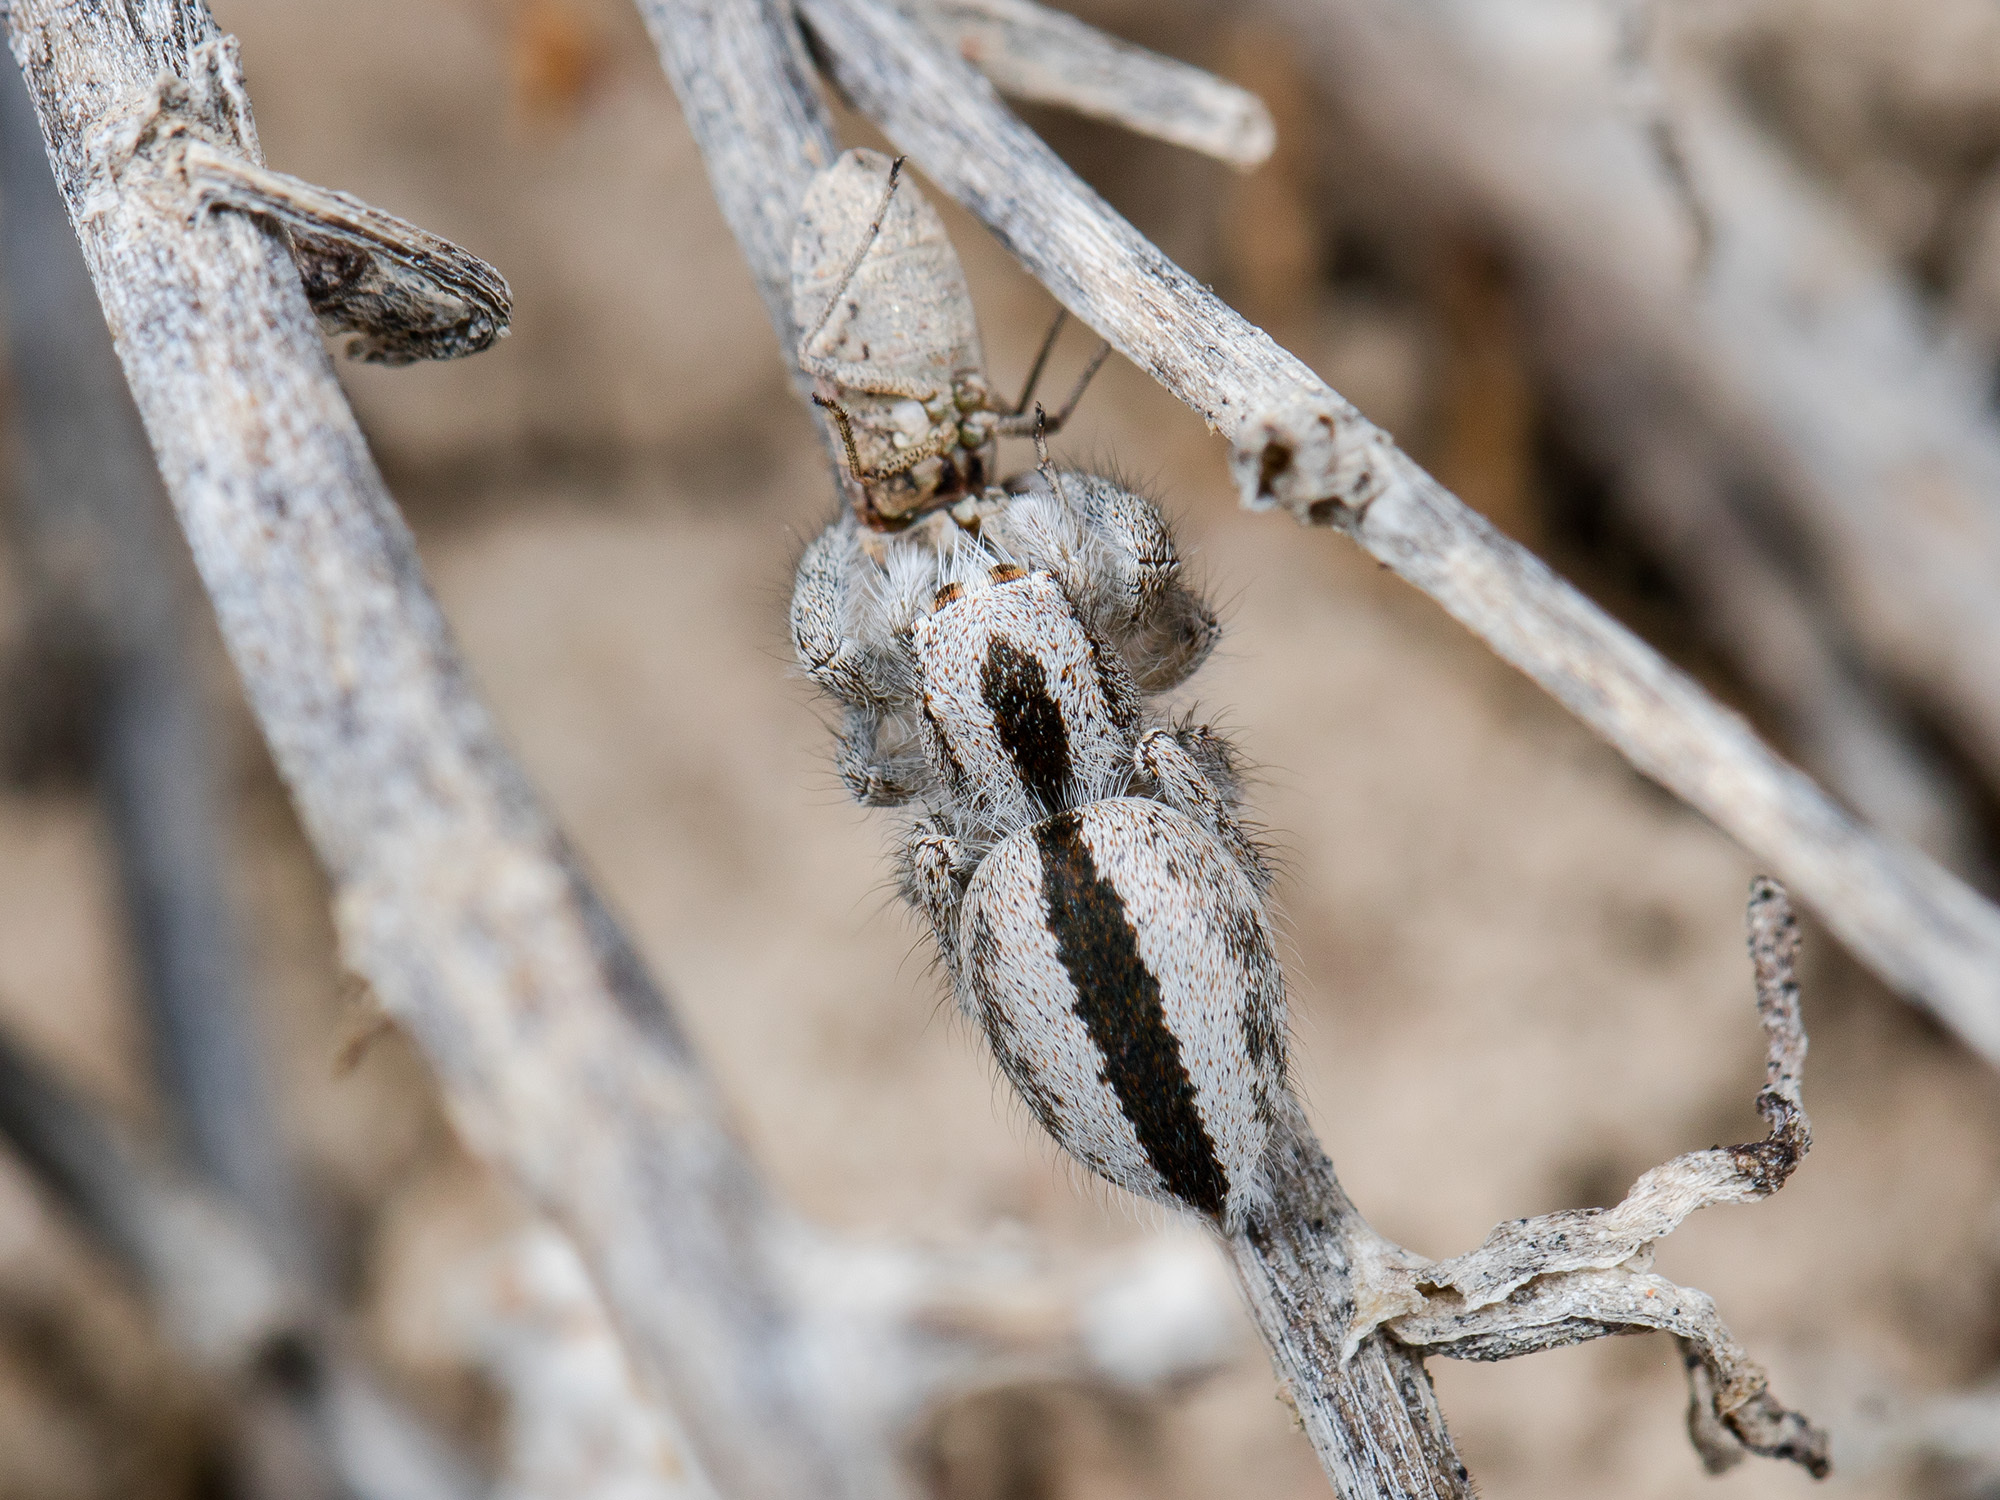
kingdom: Animalia
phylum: Arthropoda
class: Arachnida
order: Araneae
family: Salticidae
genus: Pseudomogrus
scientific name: Pseudomogrus validus
